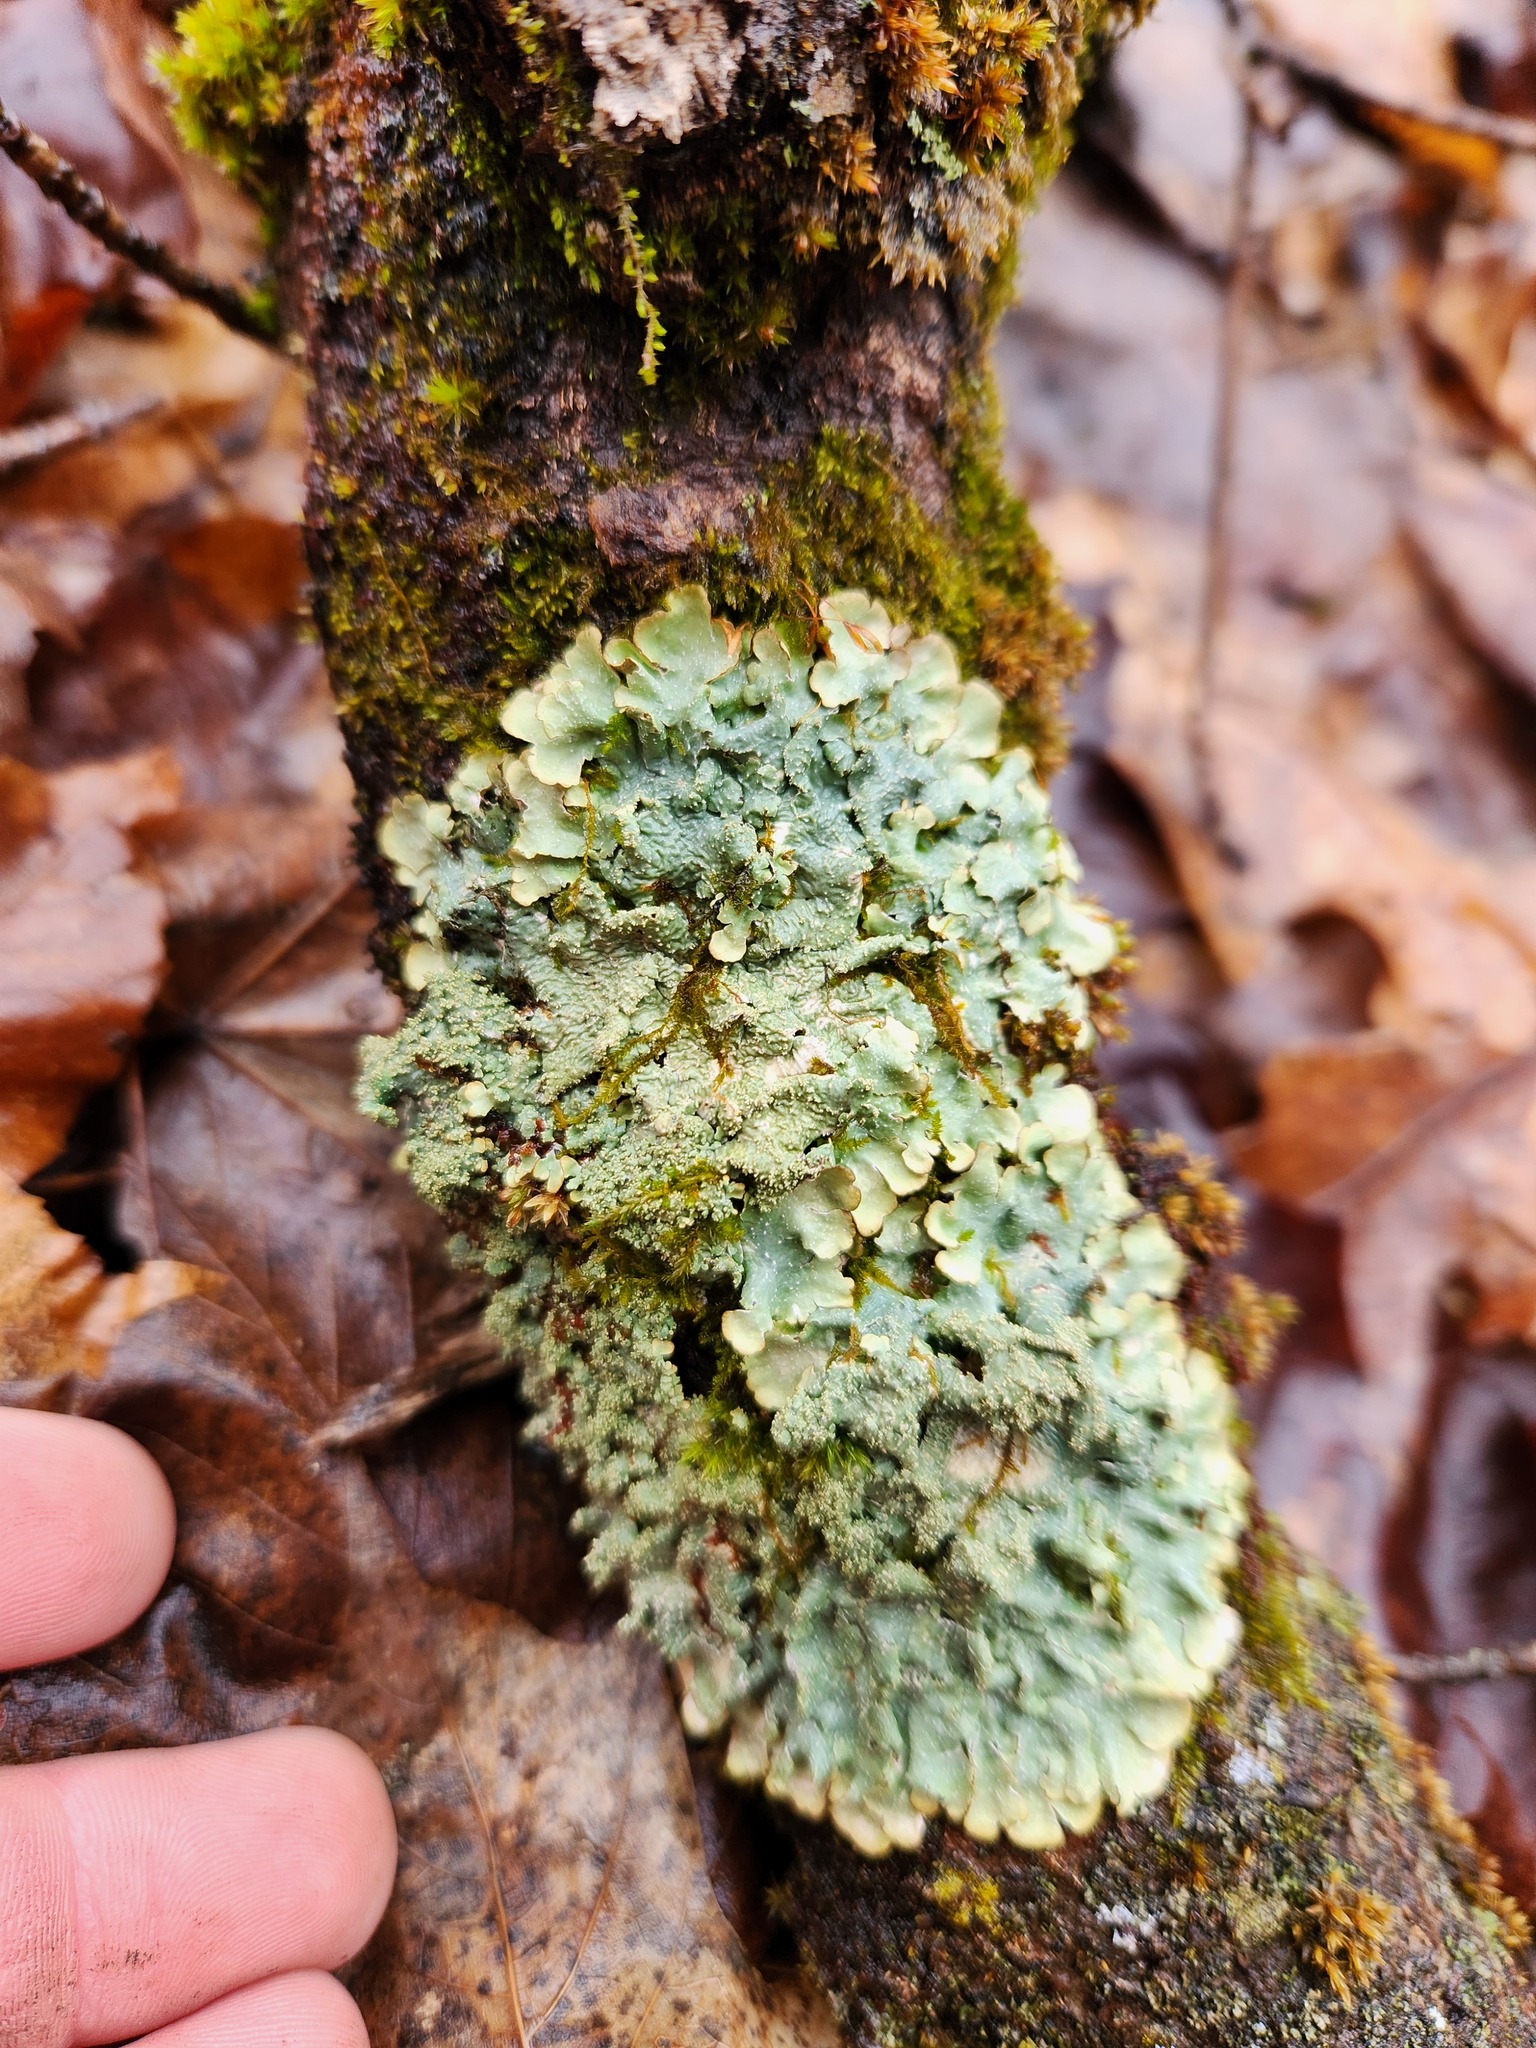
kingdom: Fungi
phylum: Ascomycota
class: Lecanoromycetes
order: Lecanorales
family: Parmeliaceae
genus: Punctelia
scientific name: Punctelia rudecta
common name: Rough speckled shield lichen
